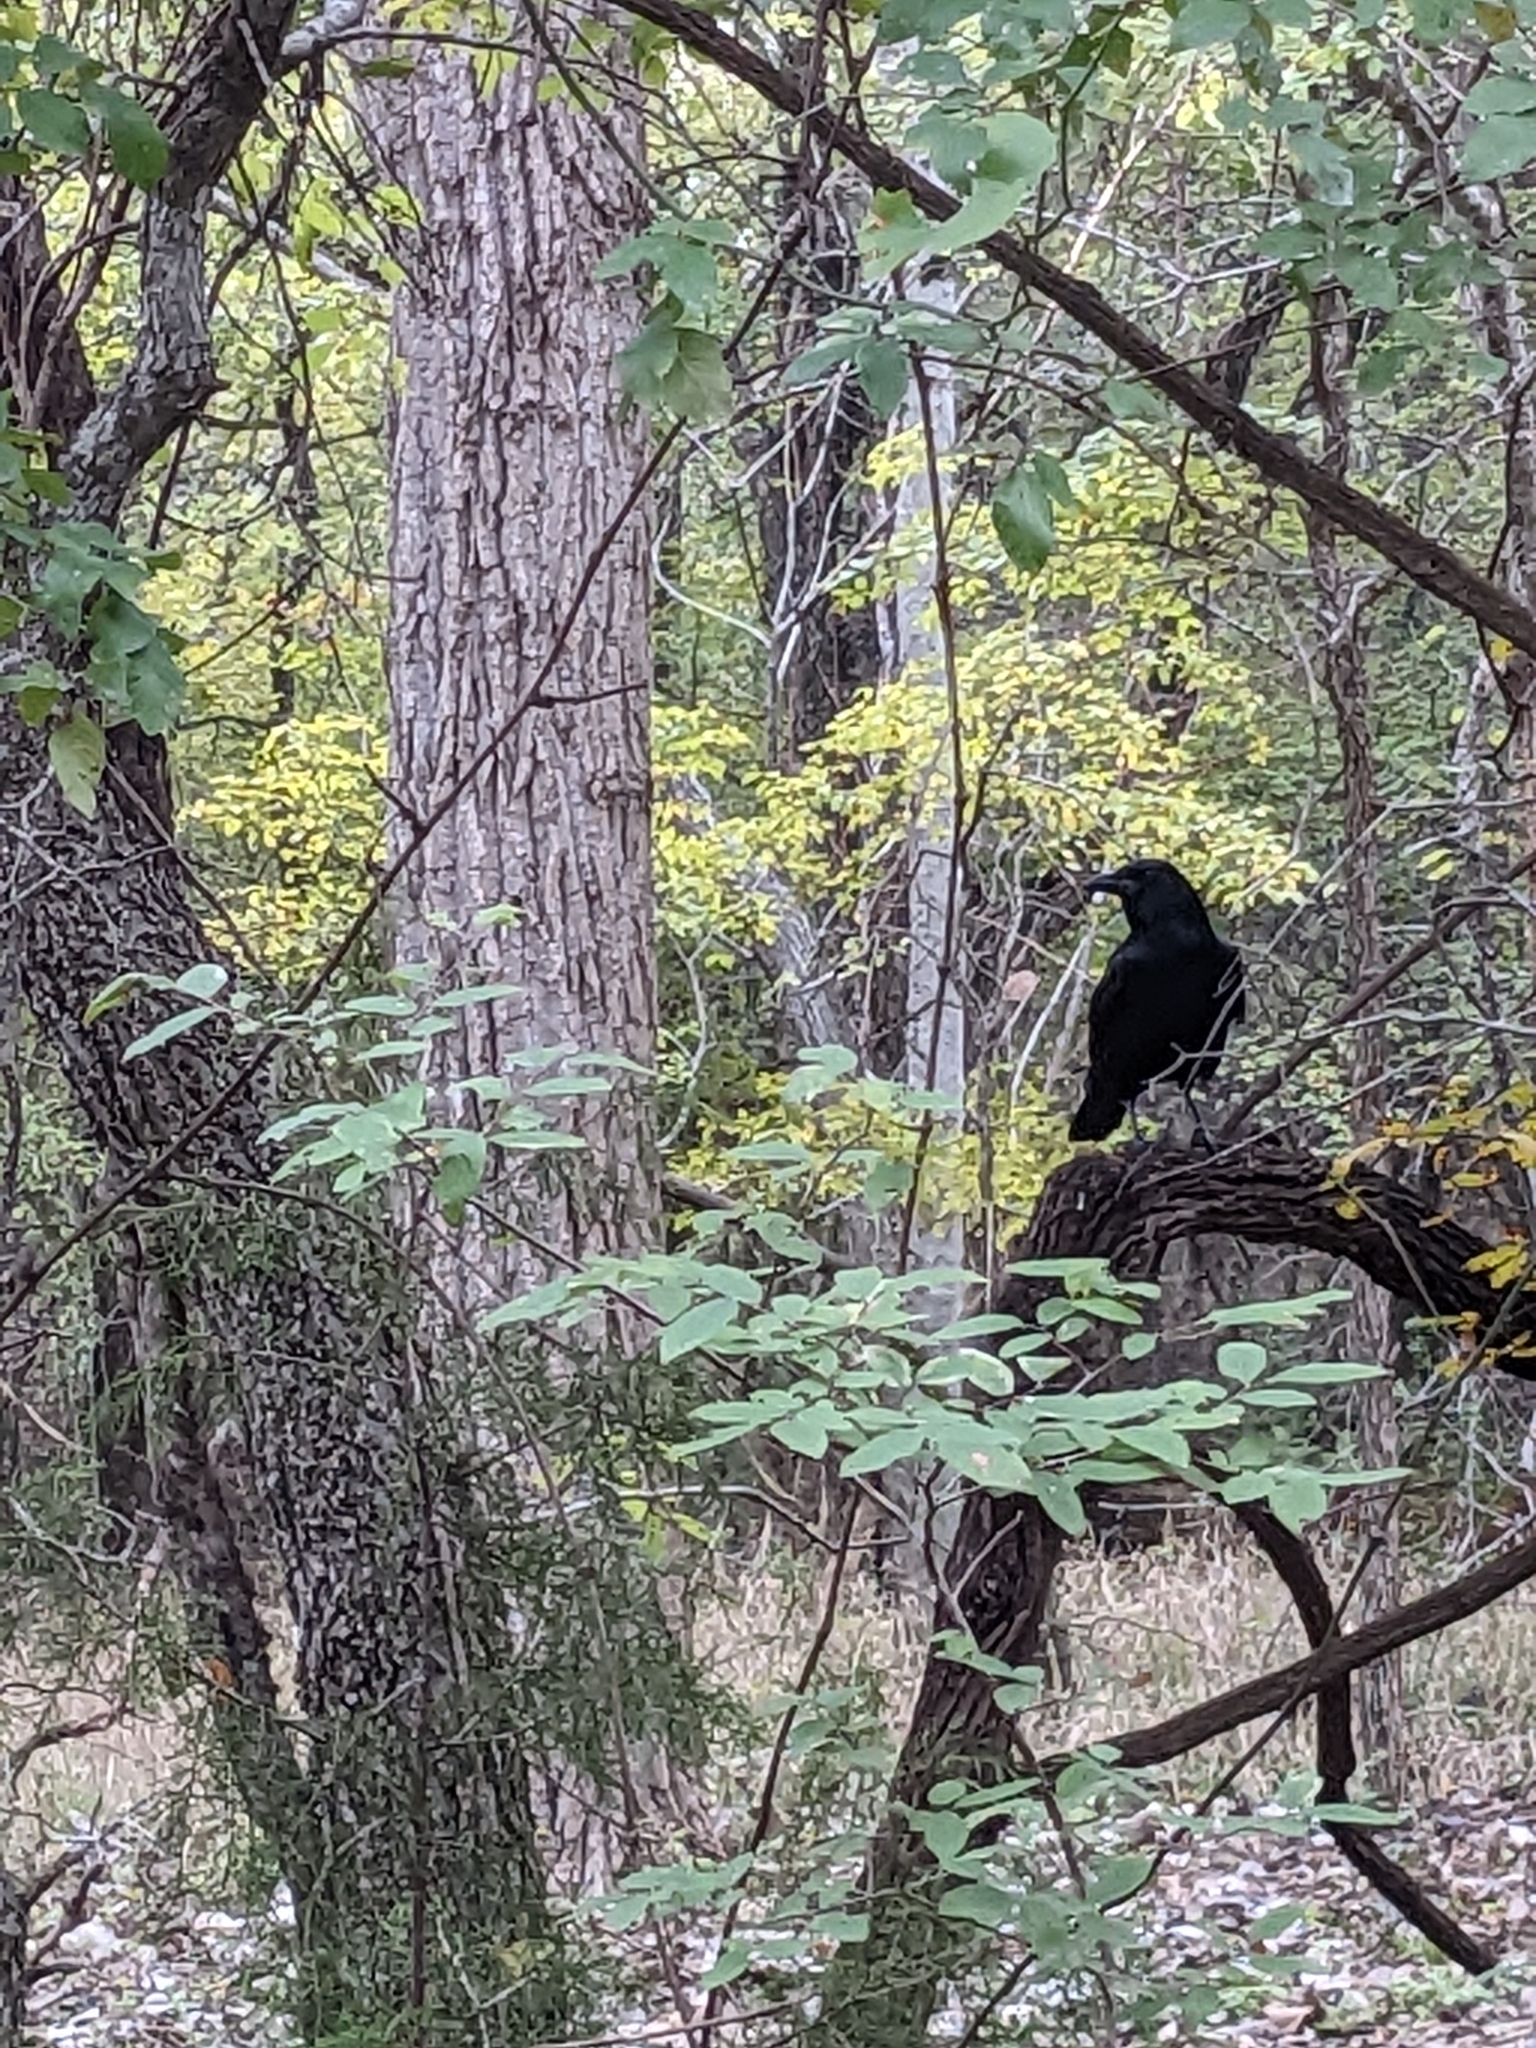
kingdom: Animalia
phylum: Chordata
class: Aves
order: Passeriformes
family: Corvidae
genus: Corvus
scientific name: Corvus brachyrhynchos
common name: American crow
